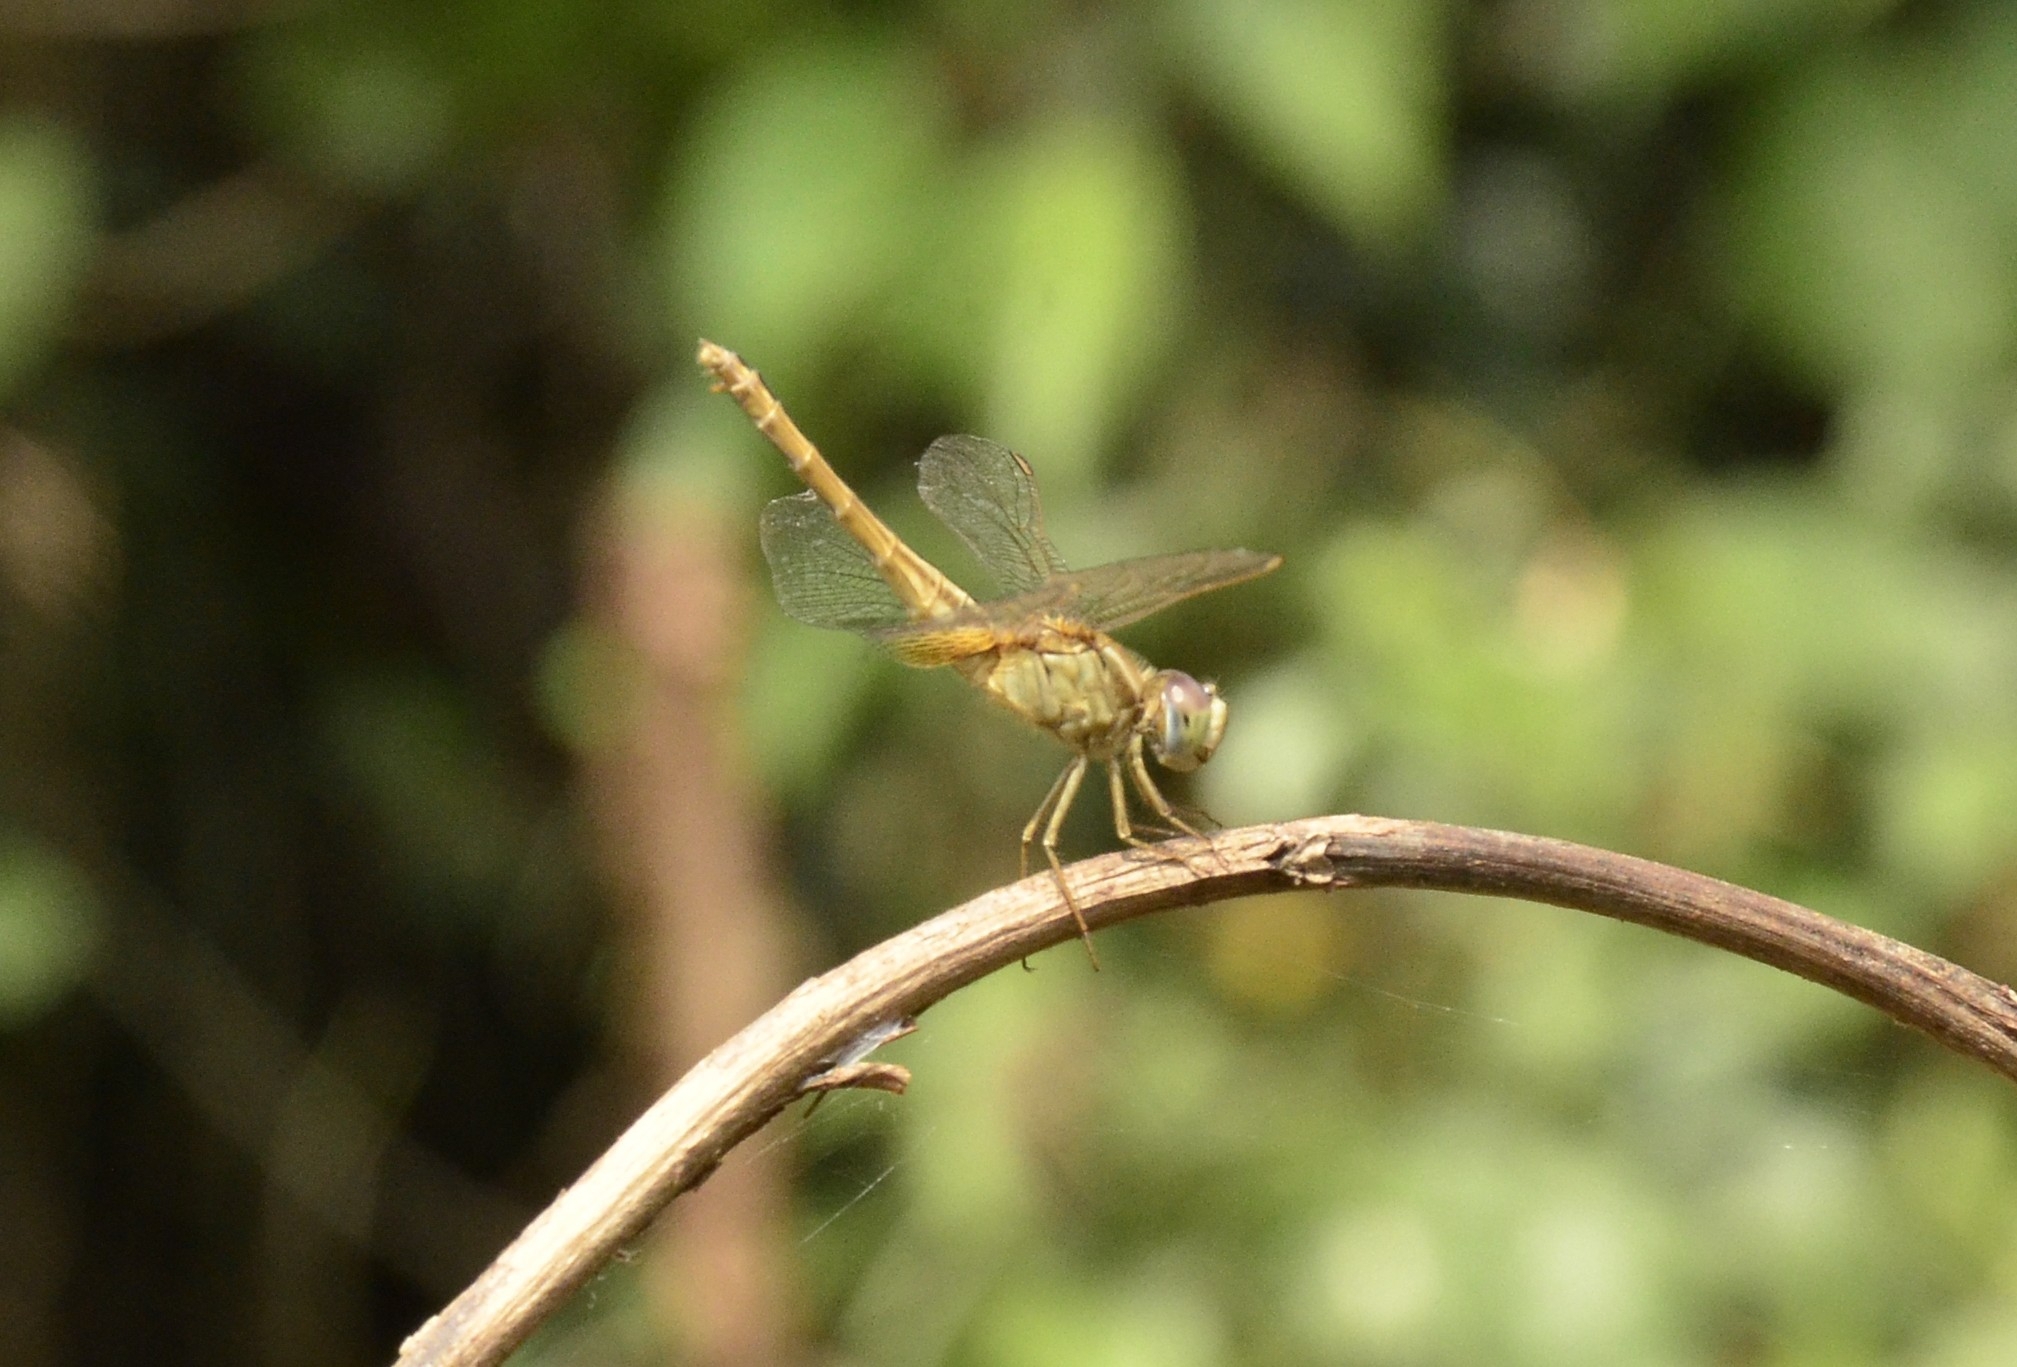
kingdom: Animalia
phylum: Arthropoda
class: Insecta
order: Odonata
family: Libellulidae
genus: Crocothemis
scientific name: Crocothemis servilia
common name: Scarlet skimmer
